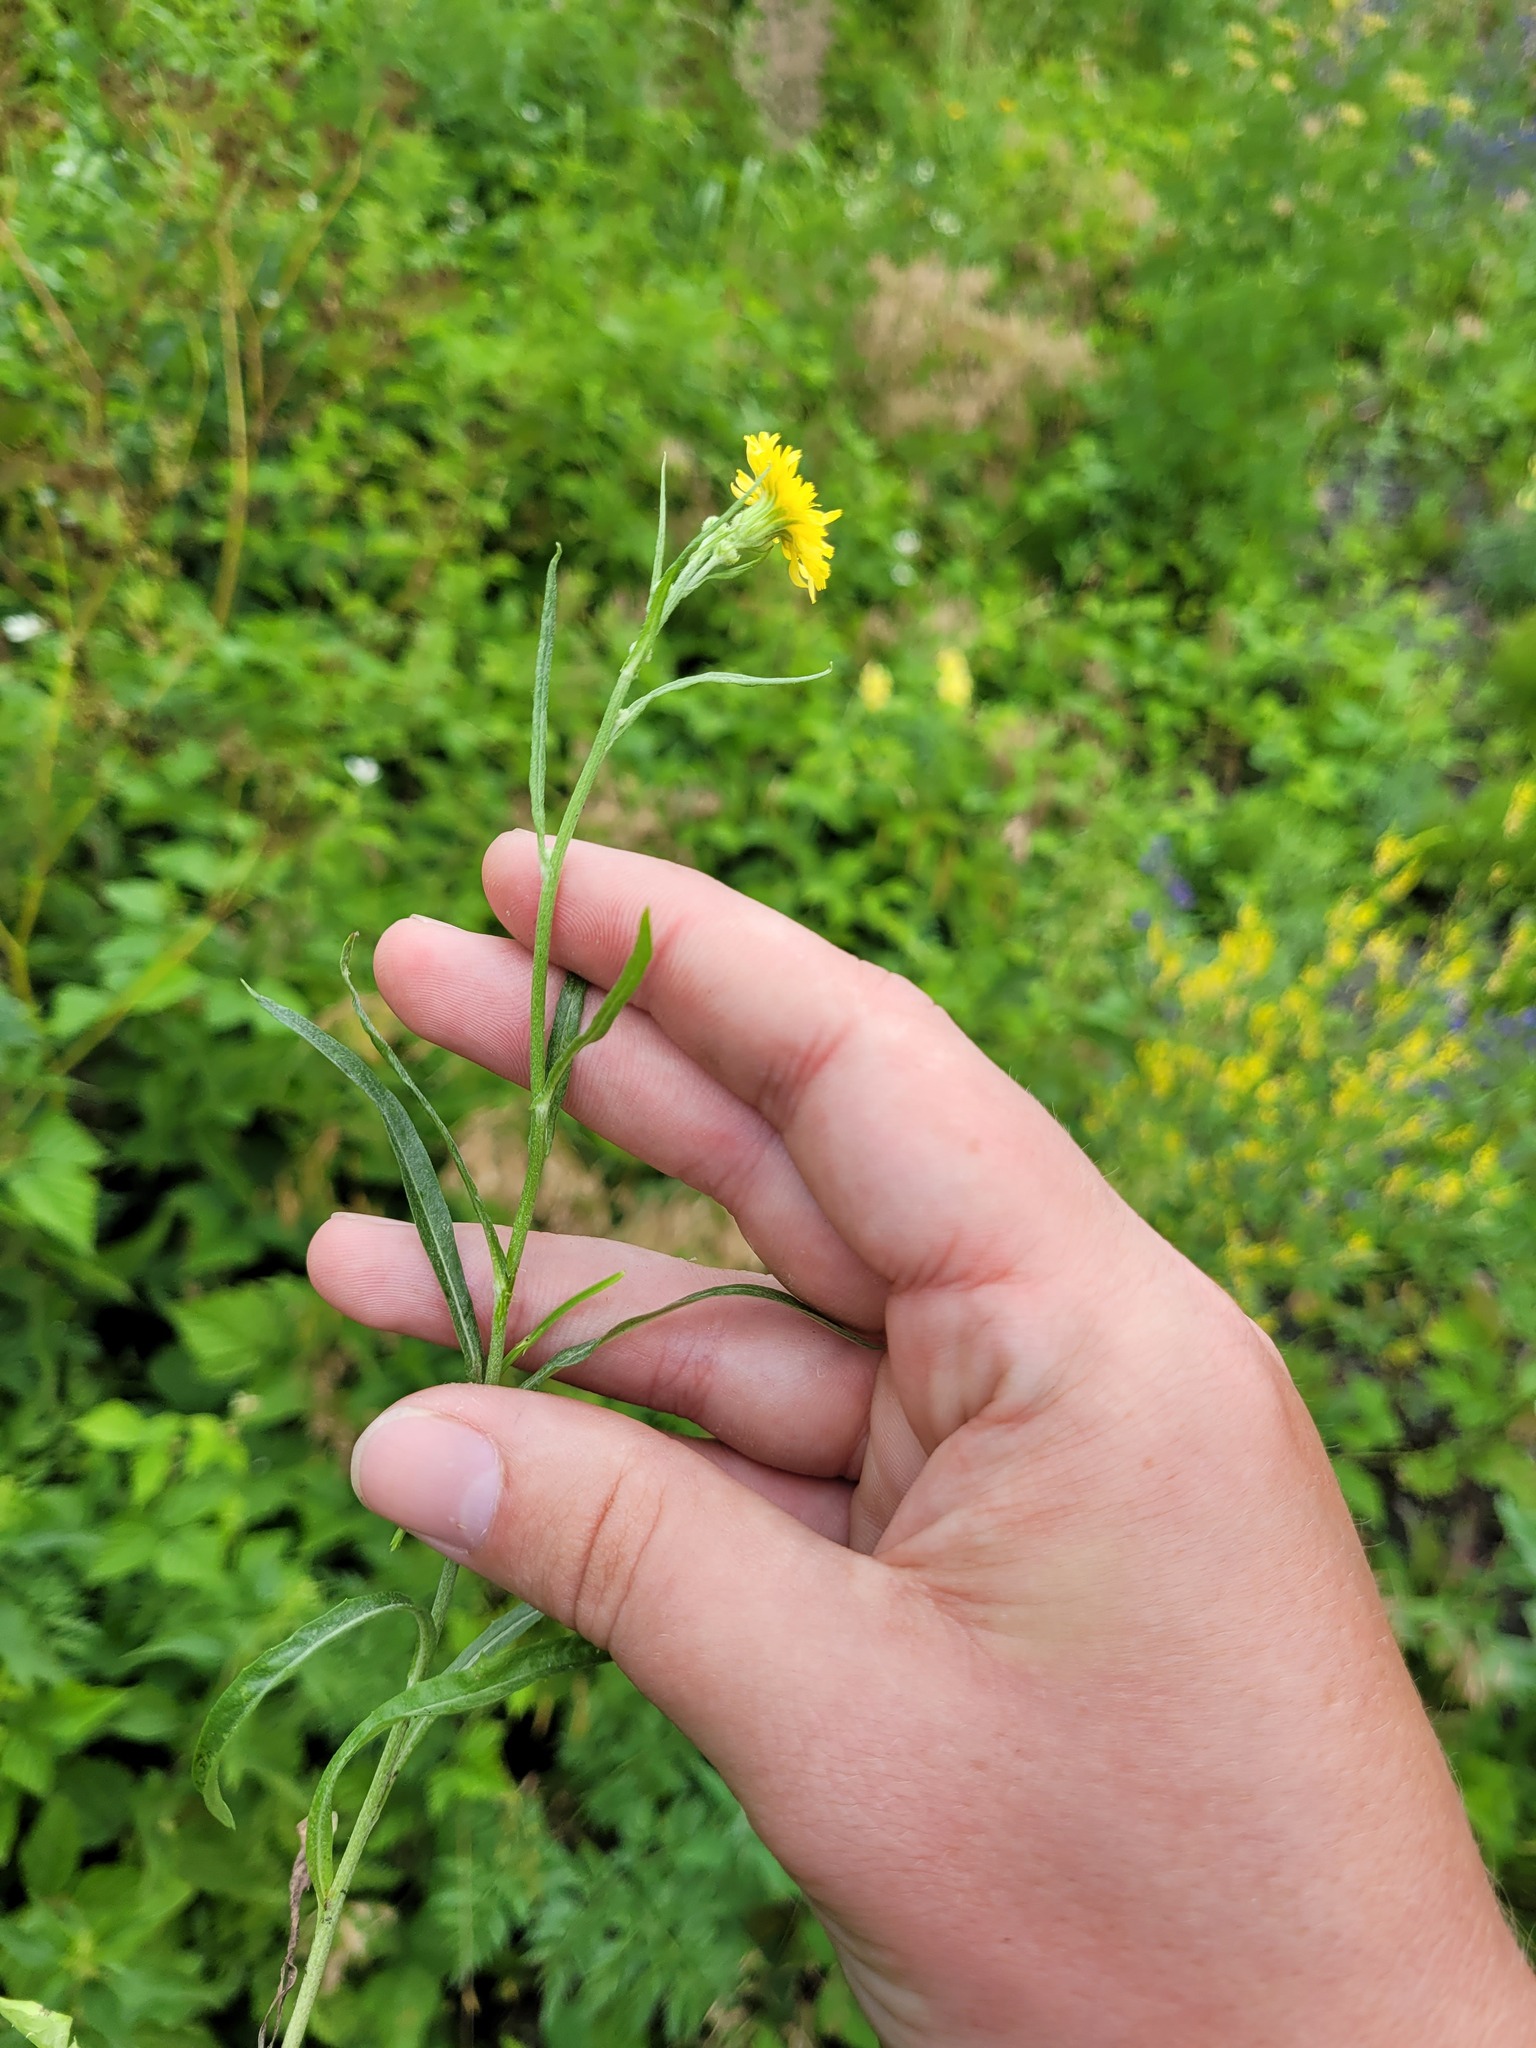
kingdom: Plantae
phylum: Tracheophyta
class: Magnoliopsida
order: Asterales
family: Asteraceae
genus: Crepis
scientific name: Crepis tectorum
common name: Narrow-leaved hawk's-beard
